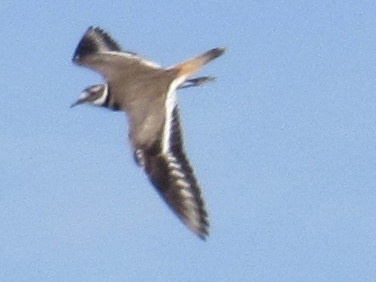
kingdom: Animalia
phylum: Chordata
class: Aves
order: Charadriiformes
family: Charadriidae
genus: Charadrius
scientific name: Charadrius vociferus
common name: Killdeer
